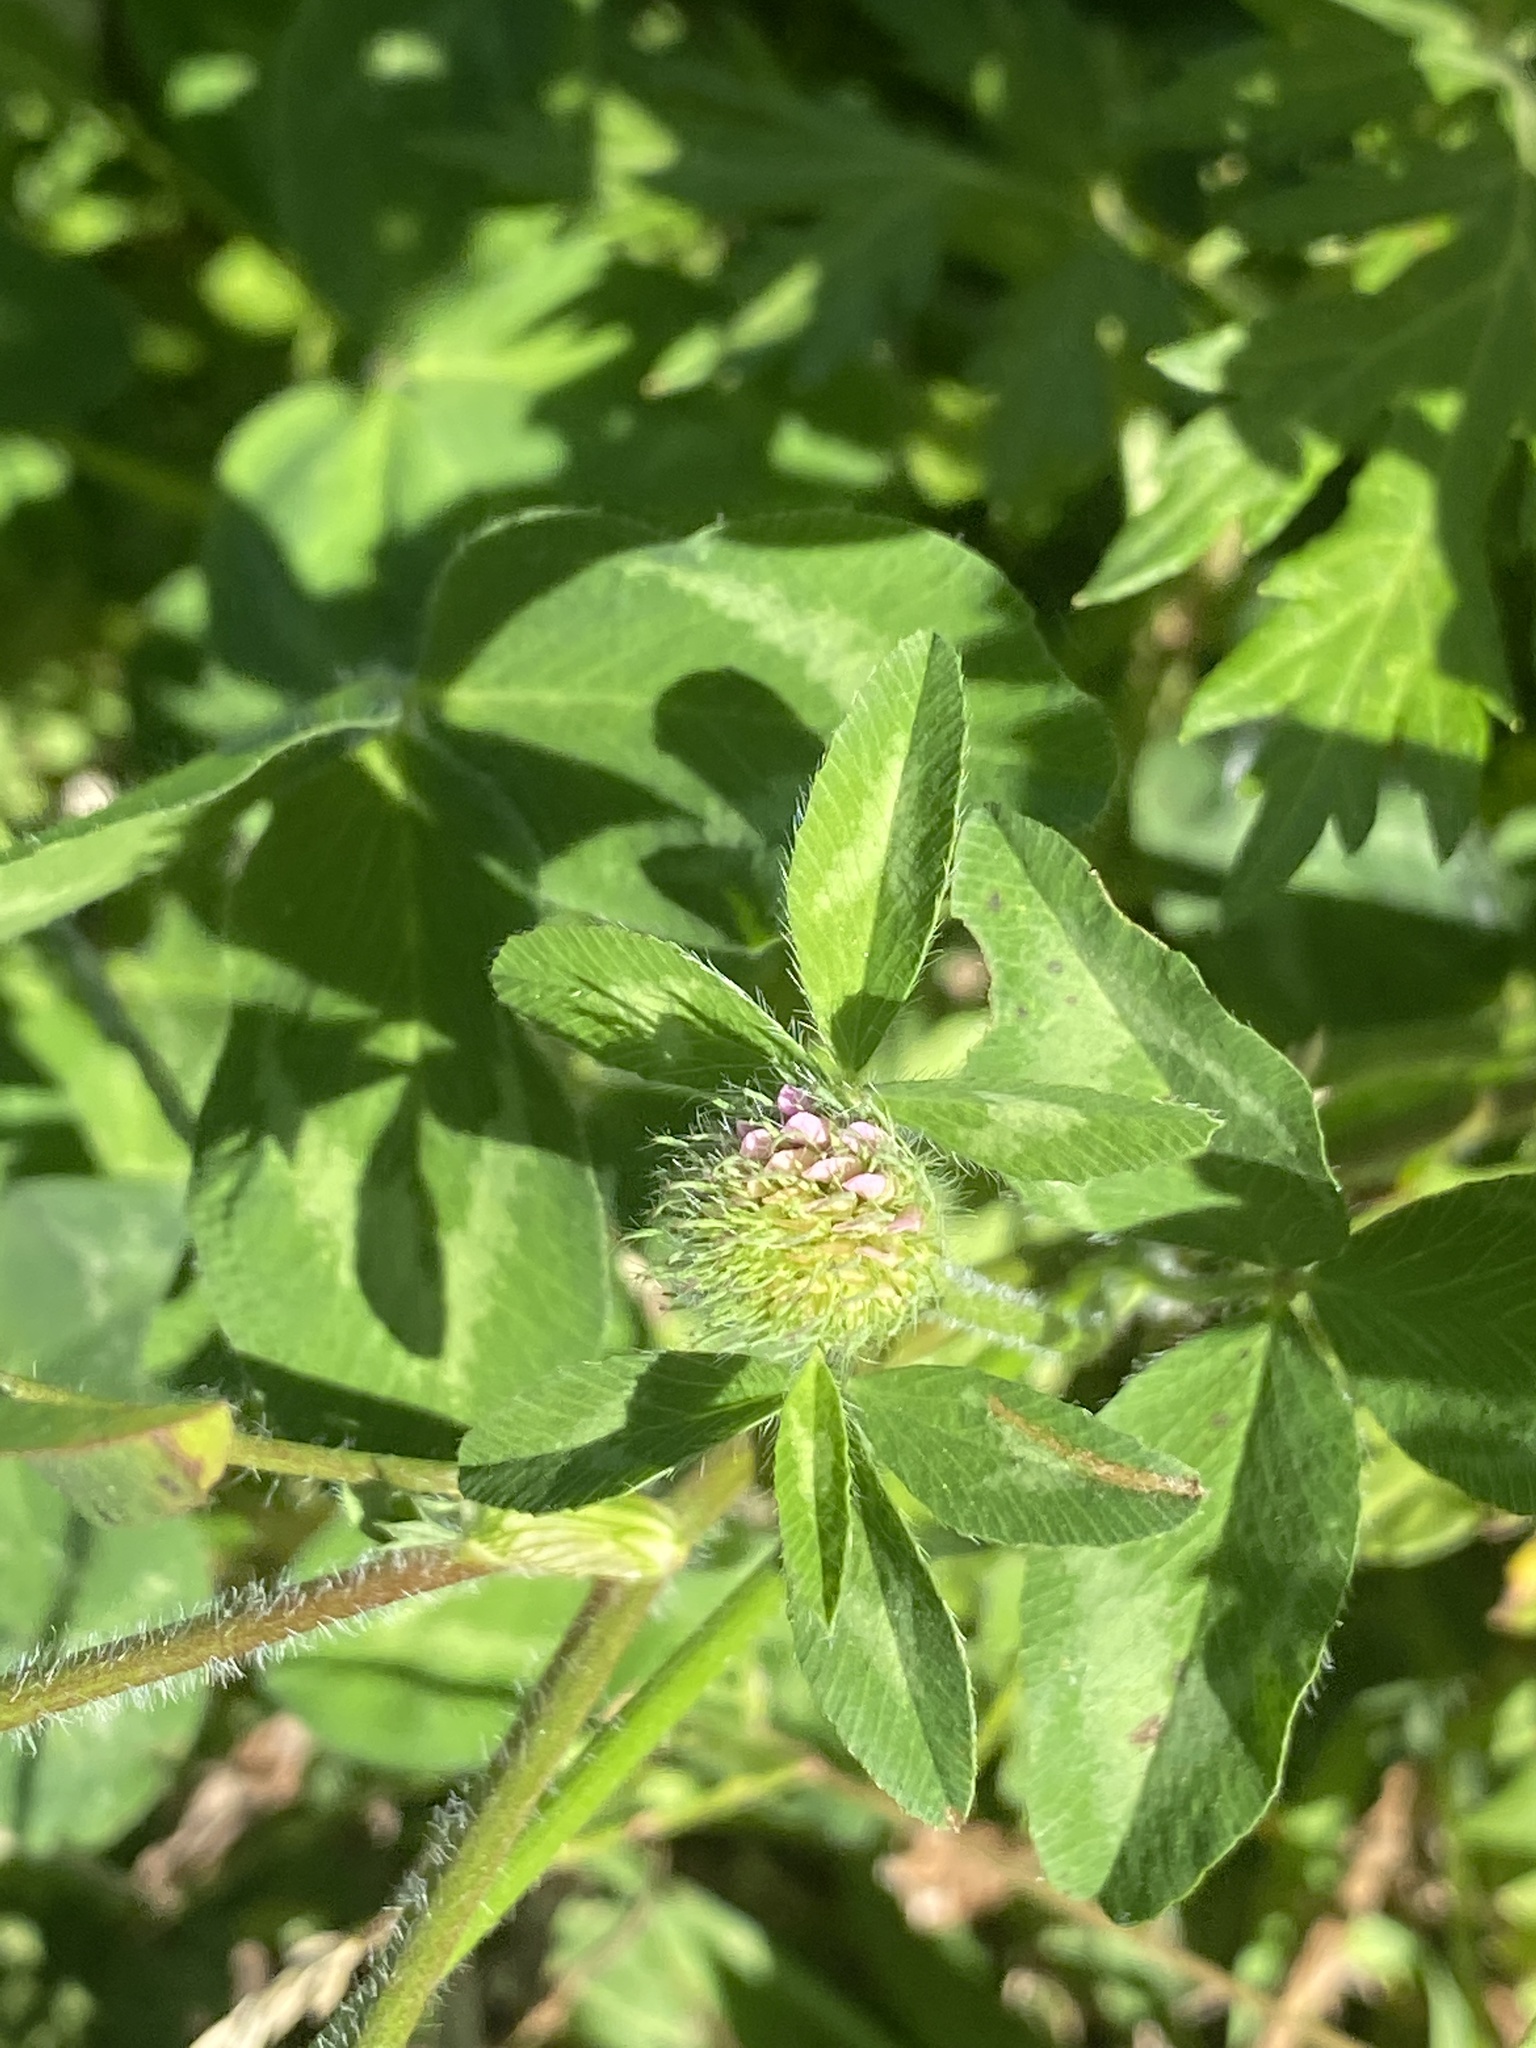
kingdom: Plantae
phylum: Tracheophyta
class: Magnoliopsida
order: Fabales
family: Fabaceae
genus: Trifolium
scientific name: Trifolium pratense
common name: Red clover
